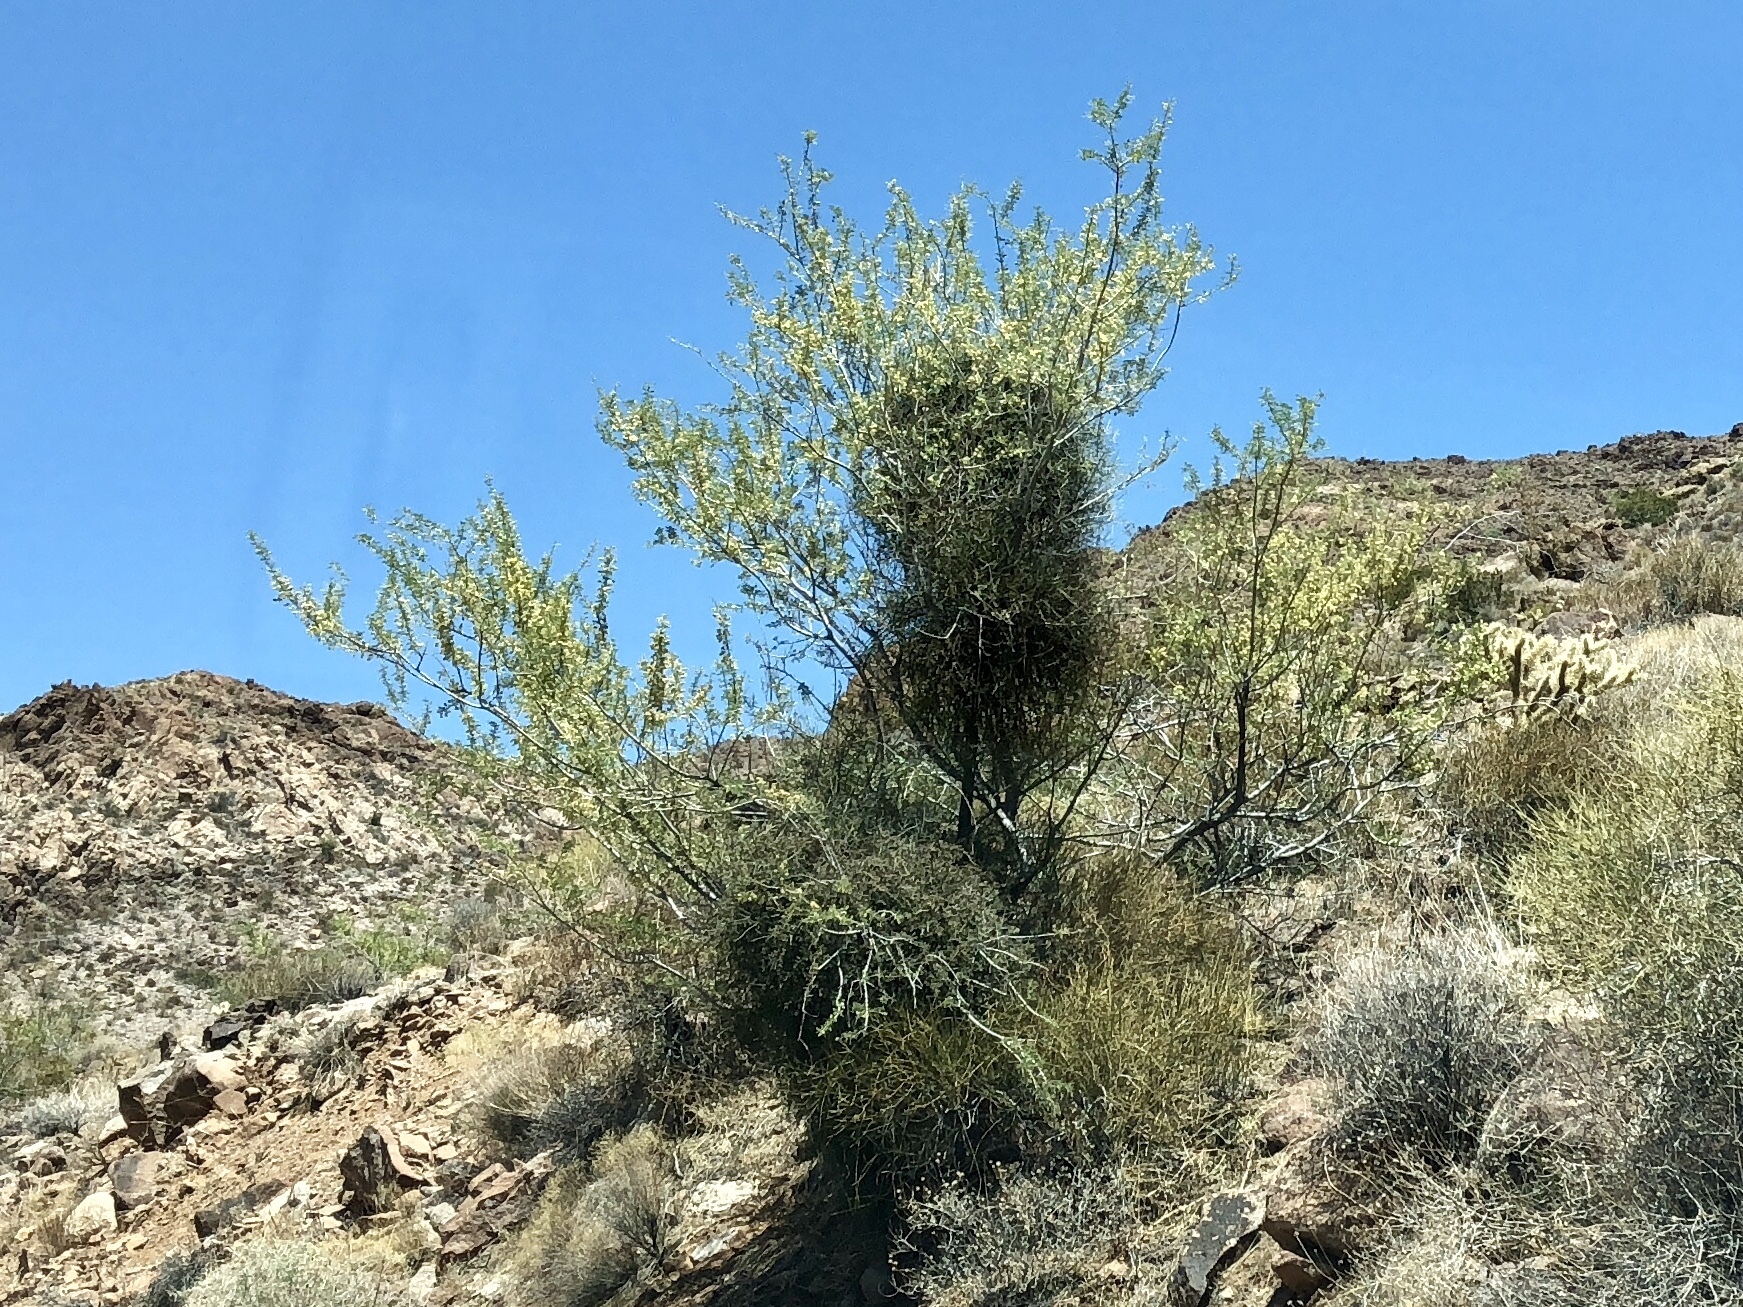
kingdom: Plantae
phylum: Tracheophyta
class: Magnoliopsida
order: Fabales
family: Fabaceae
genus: Senegalia
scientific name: Senegalia greggii
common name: Texas-mimosa
